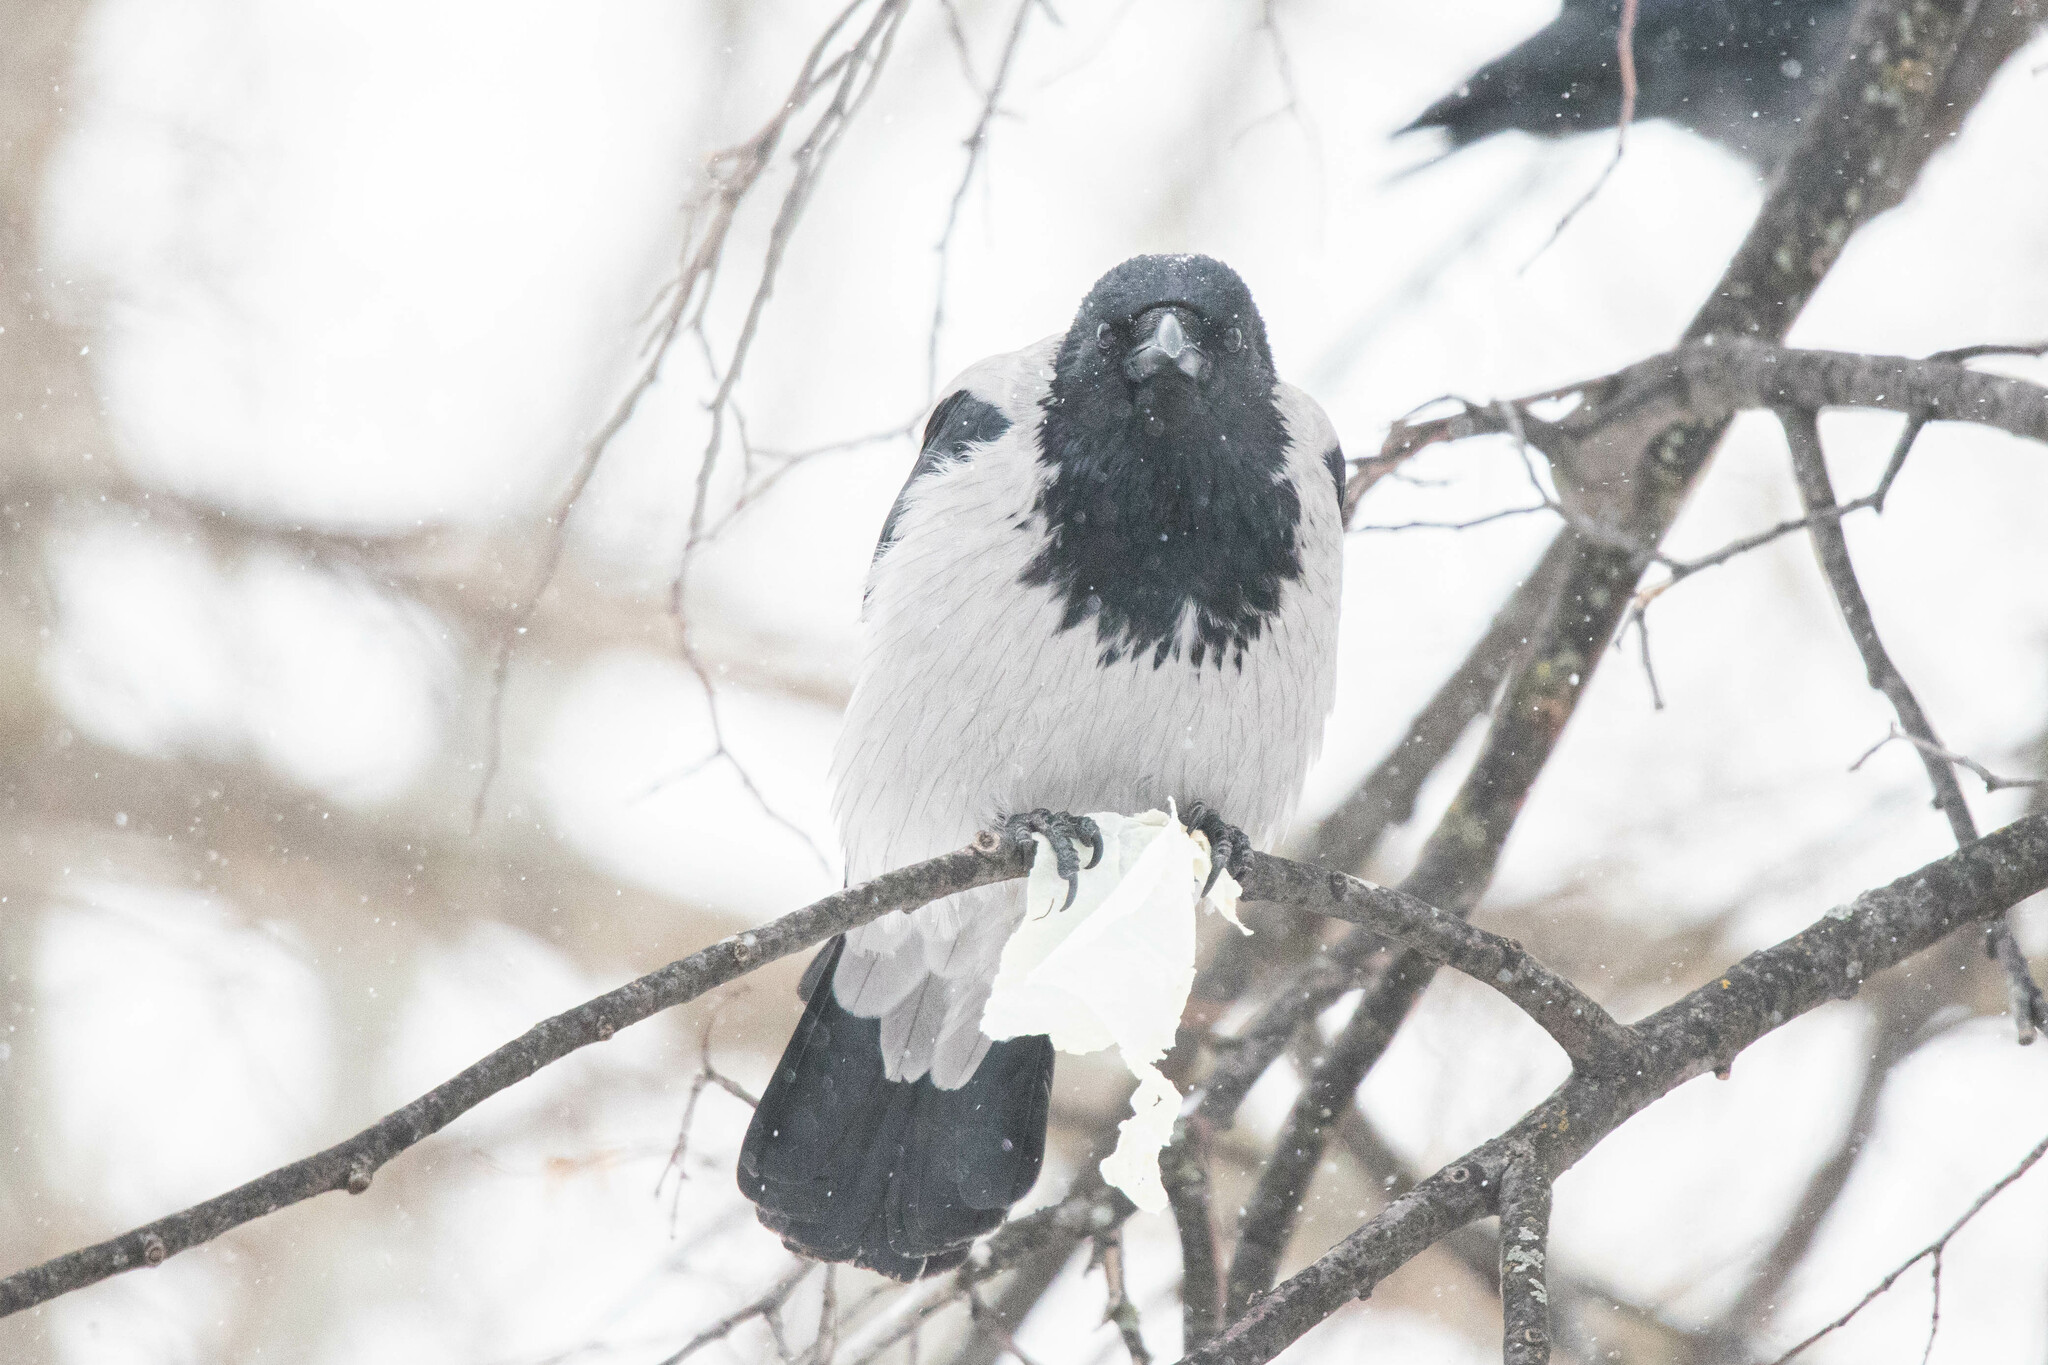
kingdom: Animalia
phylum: Chordata
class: Aves
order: Passeriformes
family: Corvidae
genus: Corvus
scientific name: Corvus cornix
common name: Hooded crow
